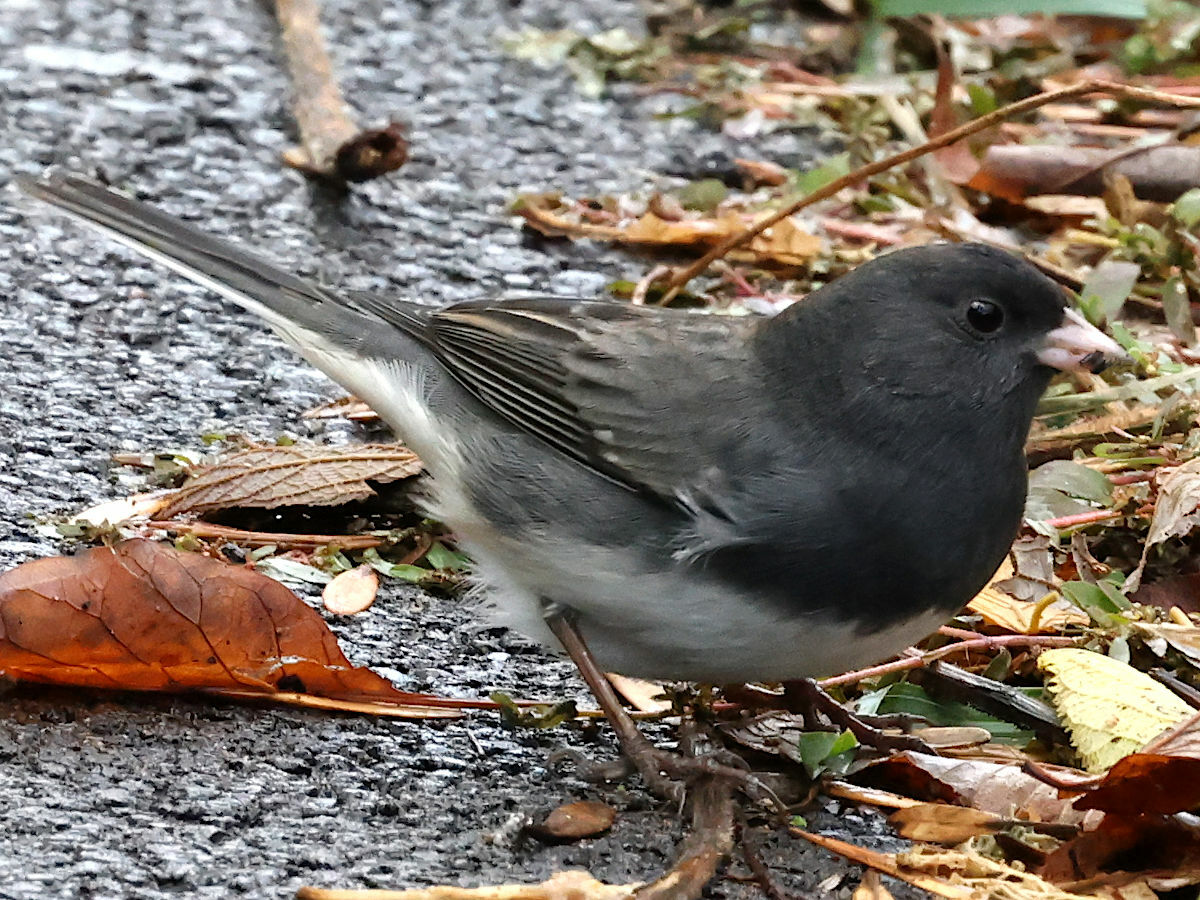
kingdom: Animalia
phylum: Chordata
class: Aves
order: Passeriformes
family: Passerellidae
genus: Junco
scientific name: Junco hyemalis
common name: Dark-eyed junco
